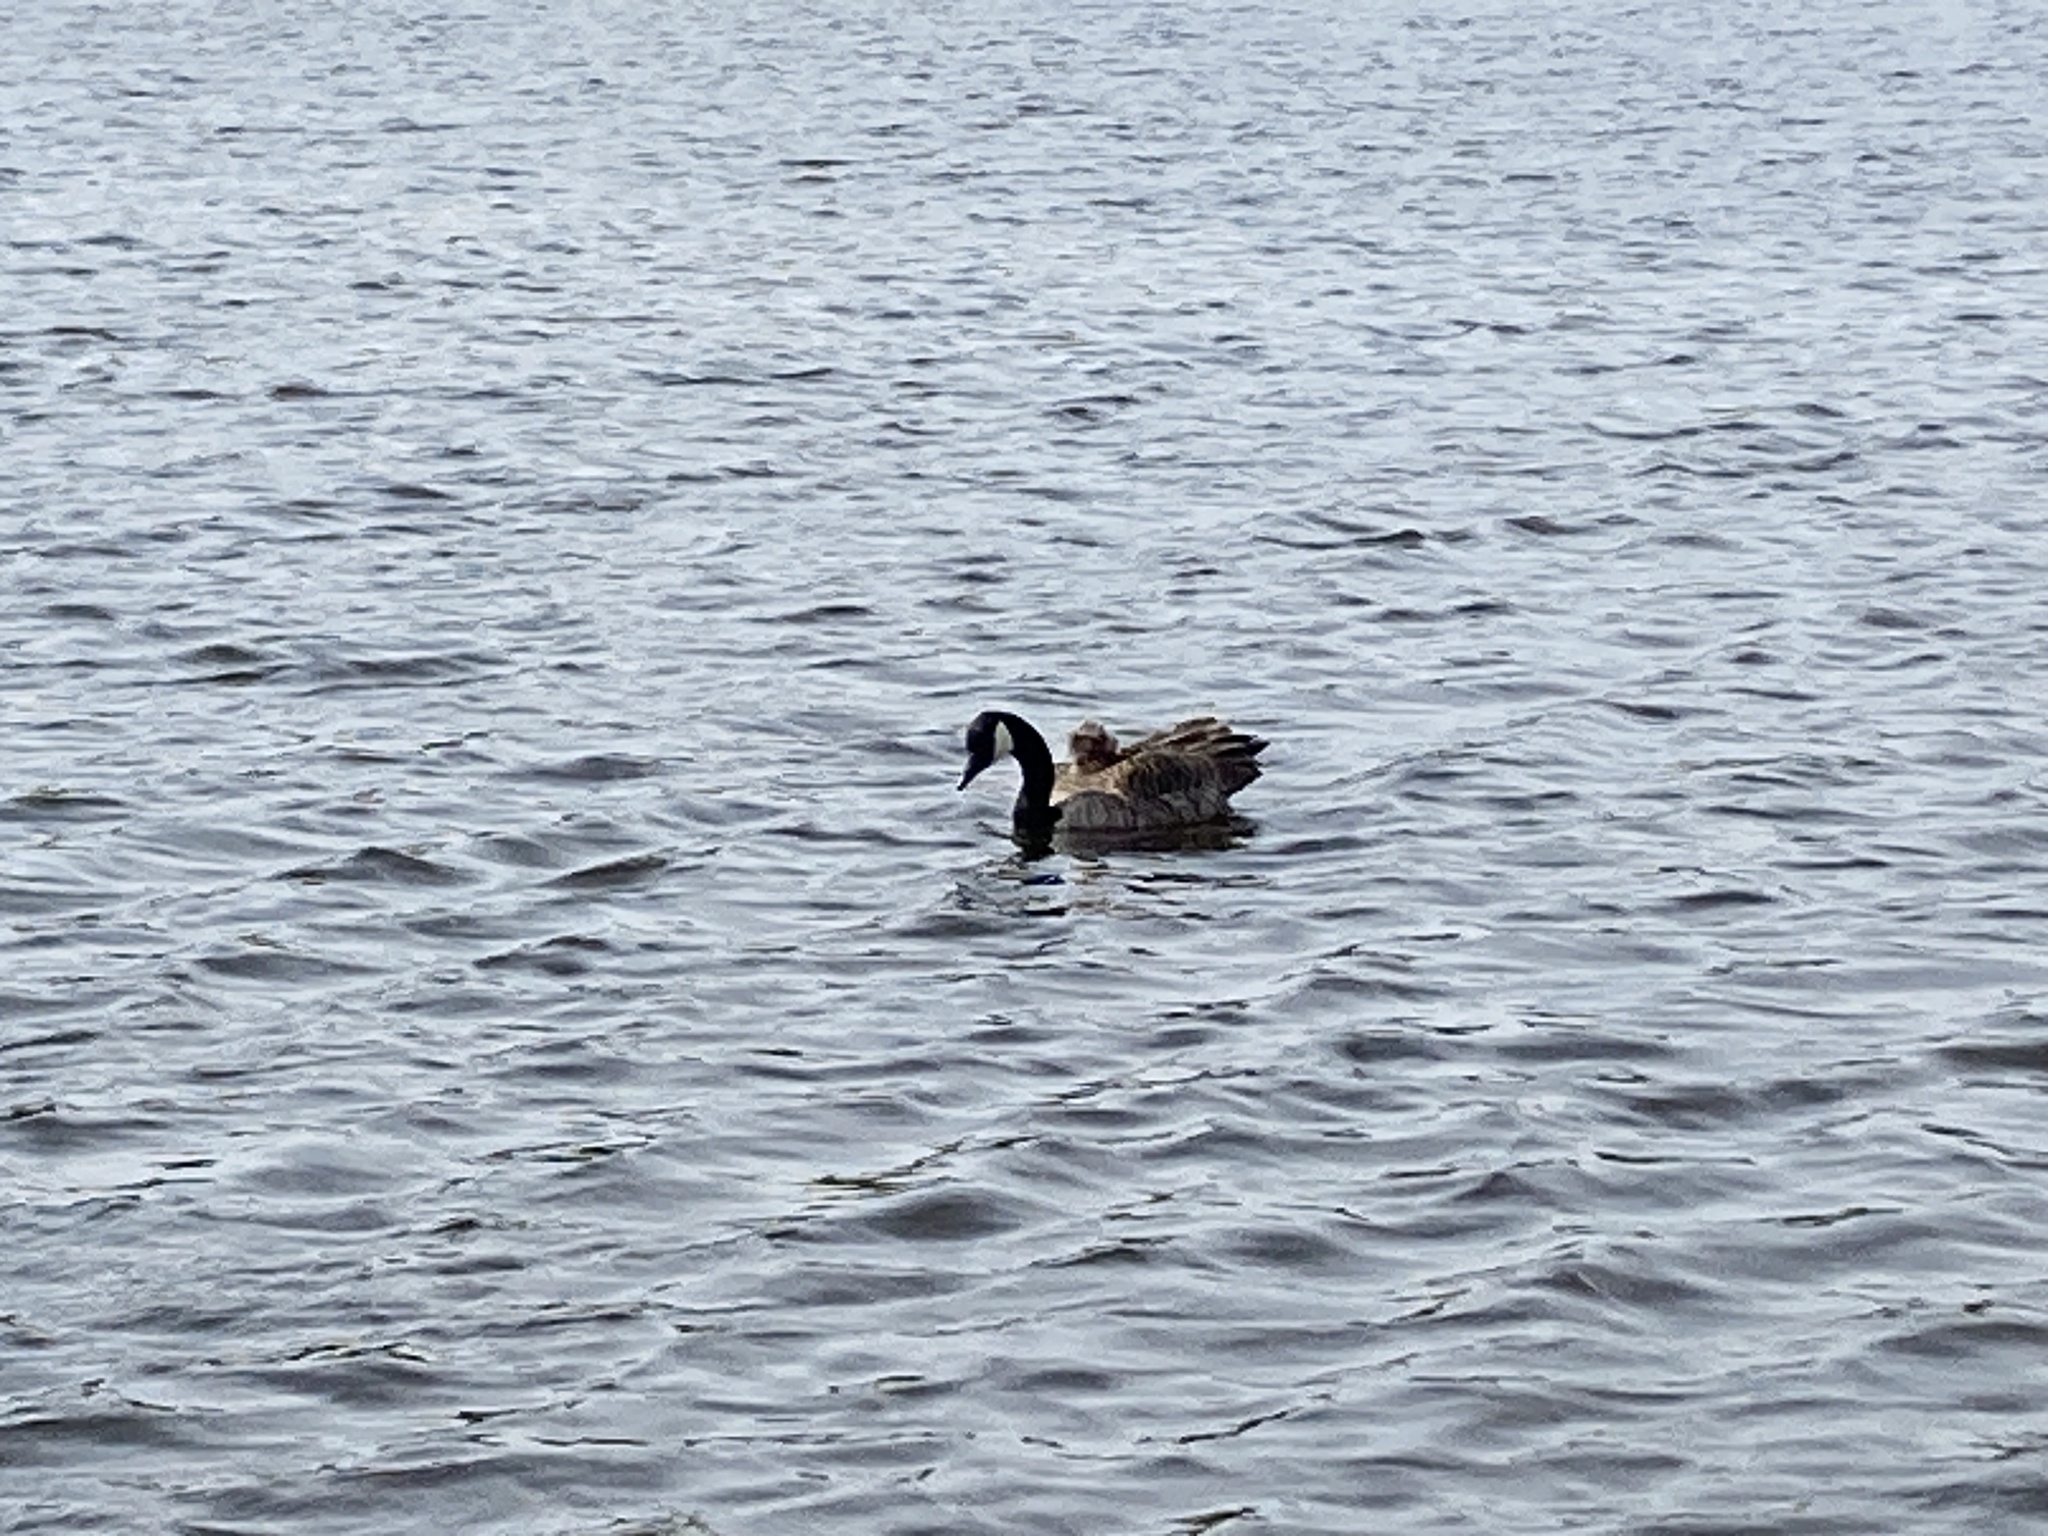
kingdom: Animalia
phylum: Chordata
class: Aves
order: Anseriformes
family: Anatidae
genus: Branta
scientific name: Branta canadensis
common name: Canada goose
